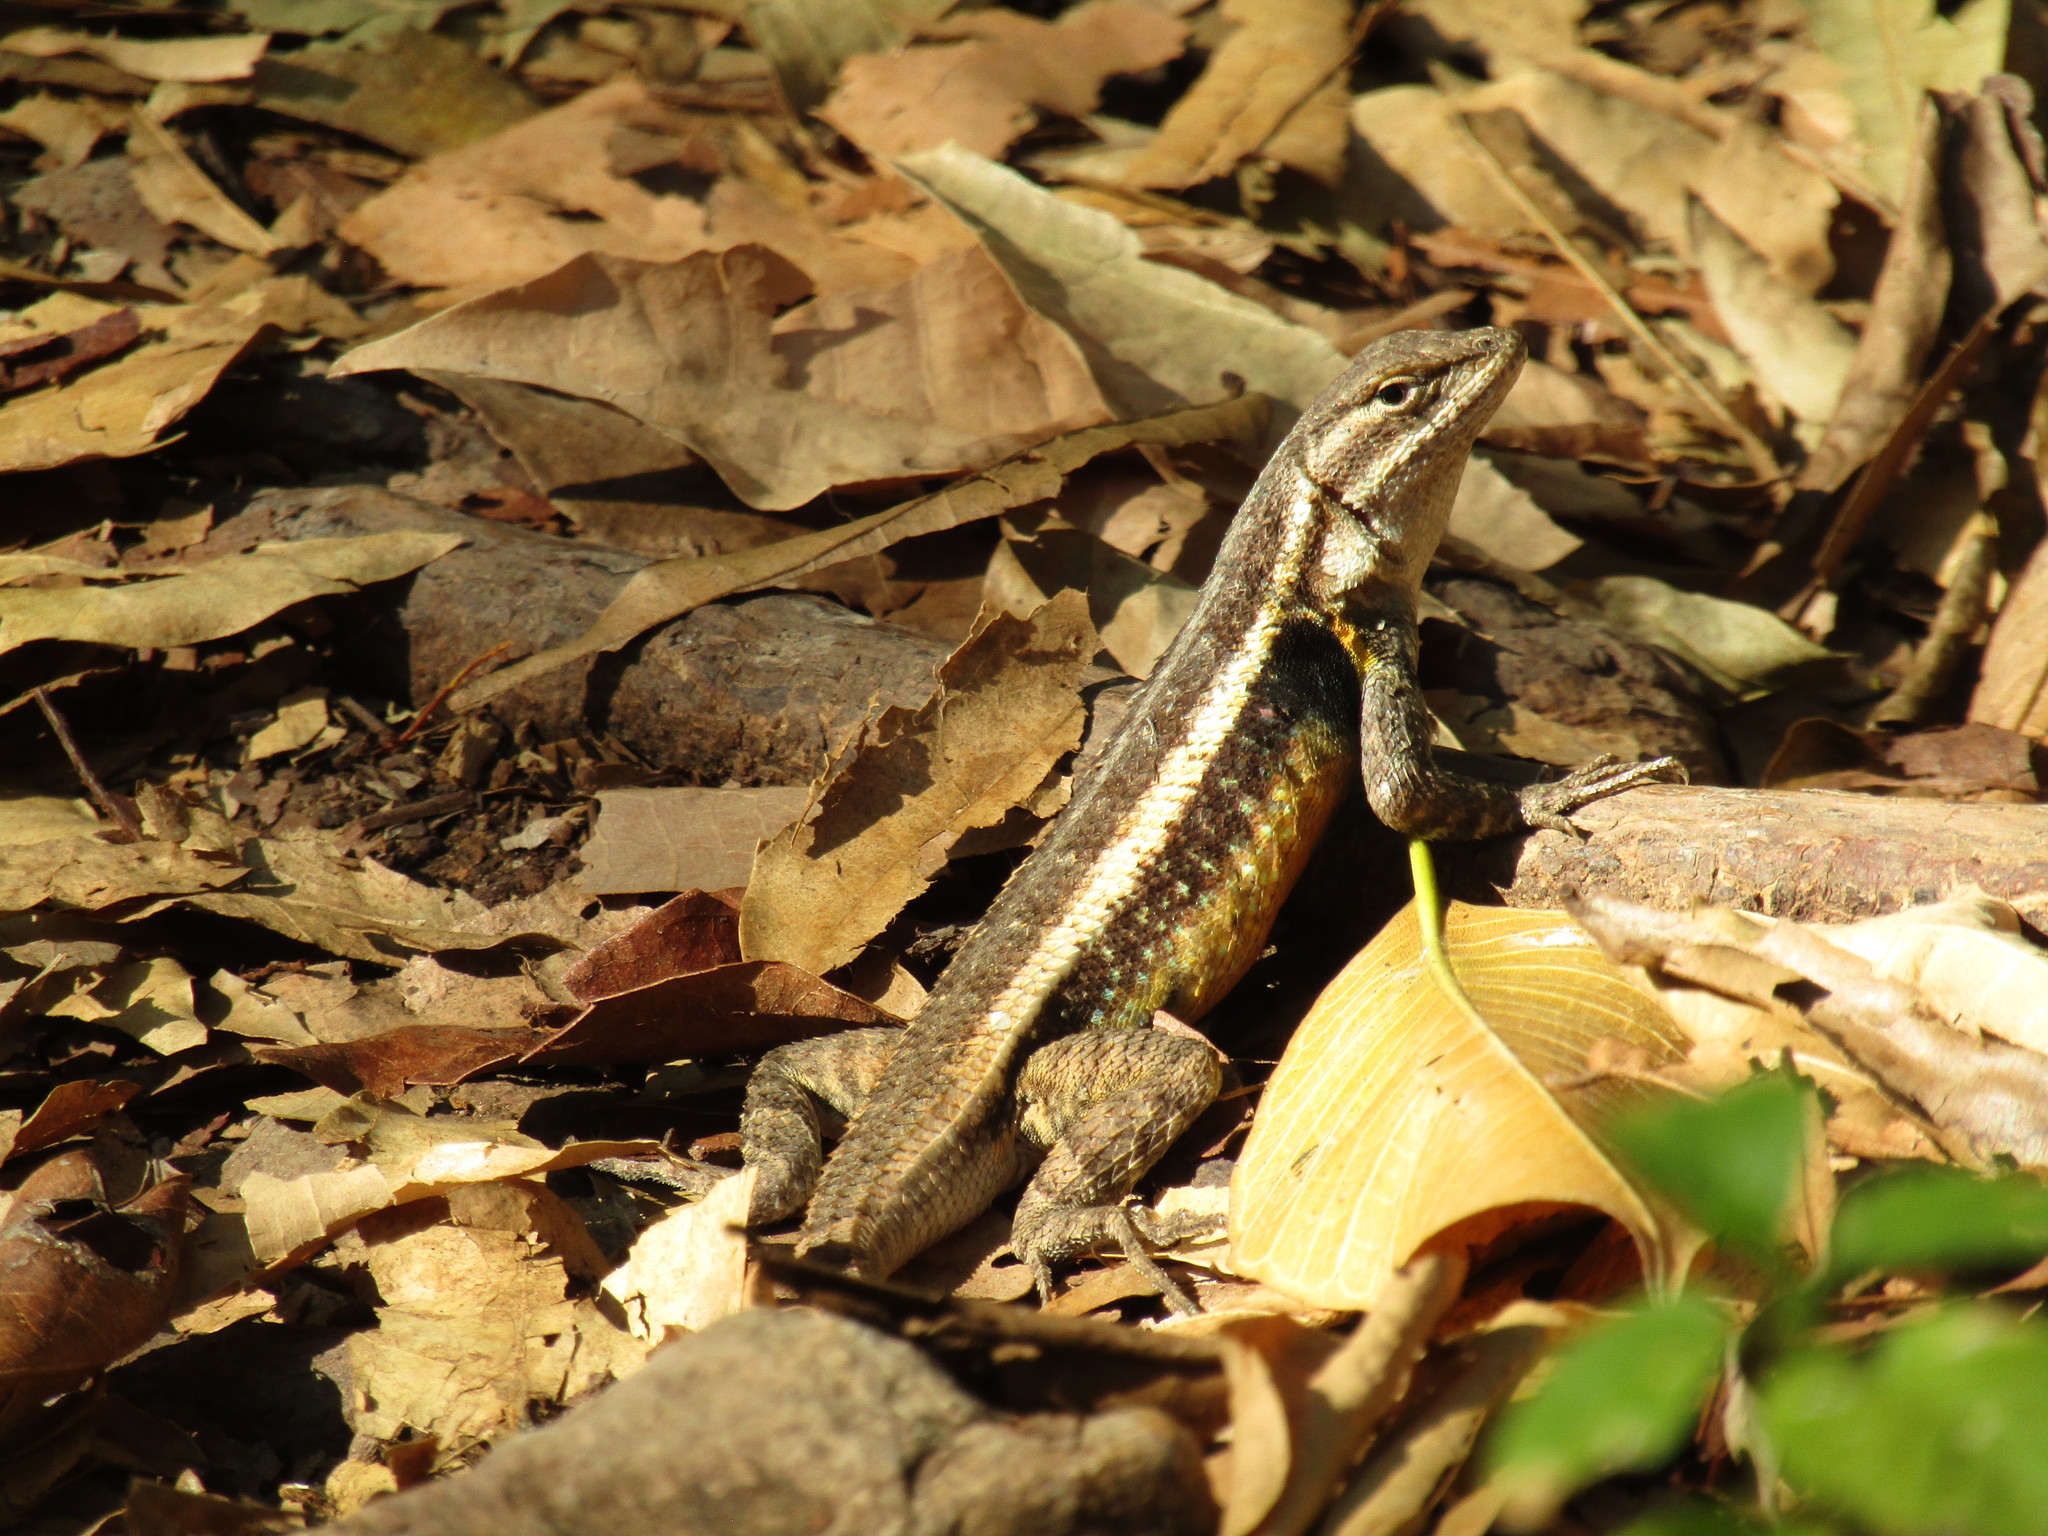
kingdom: Animalia
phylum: Chordata
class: Squamata
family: Phrynosomatidae
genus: Sceloporus
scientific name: Sceloporus variabilis
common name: Rosebelly lizard
